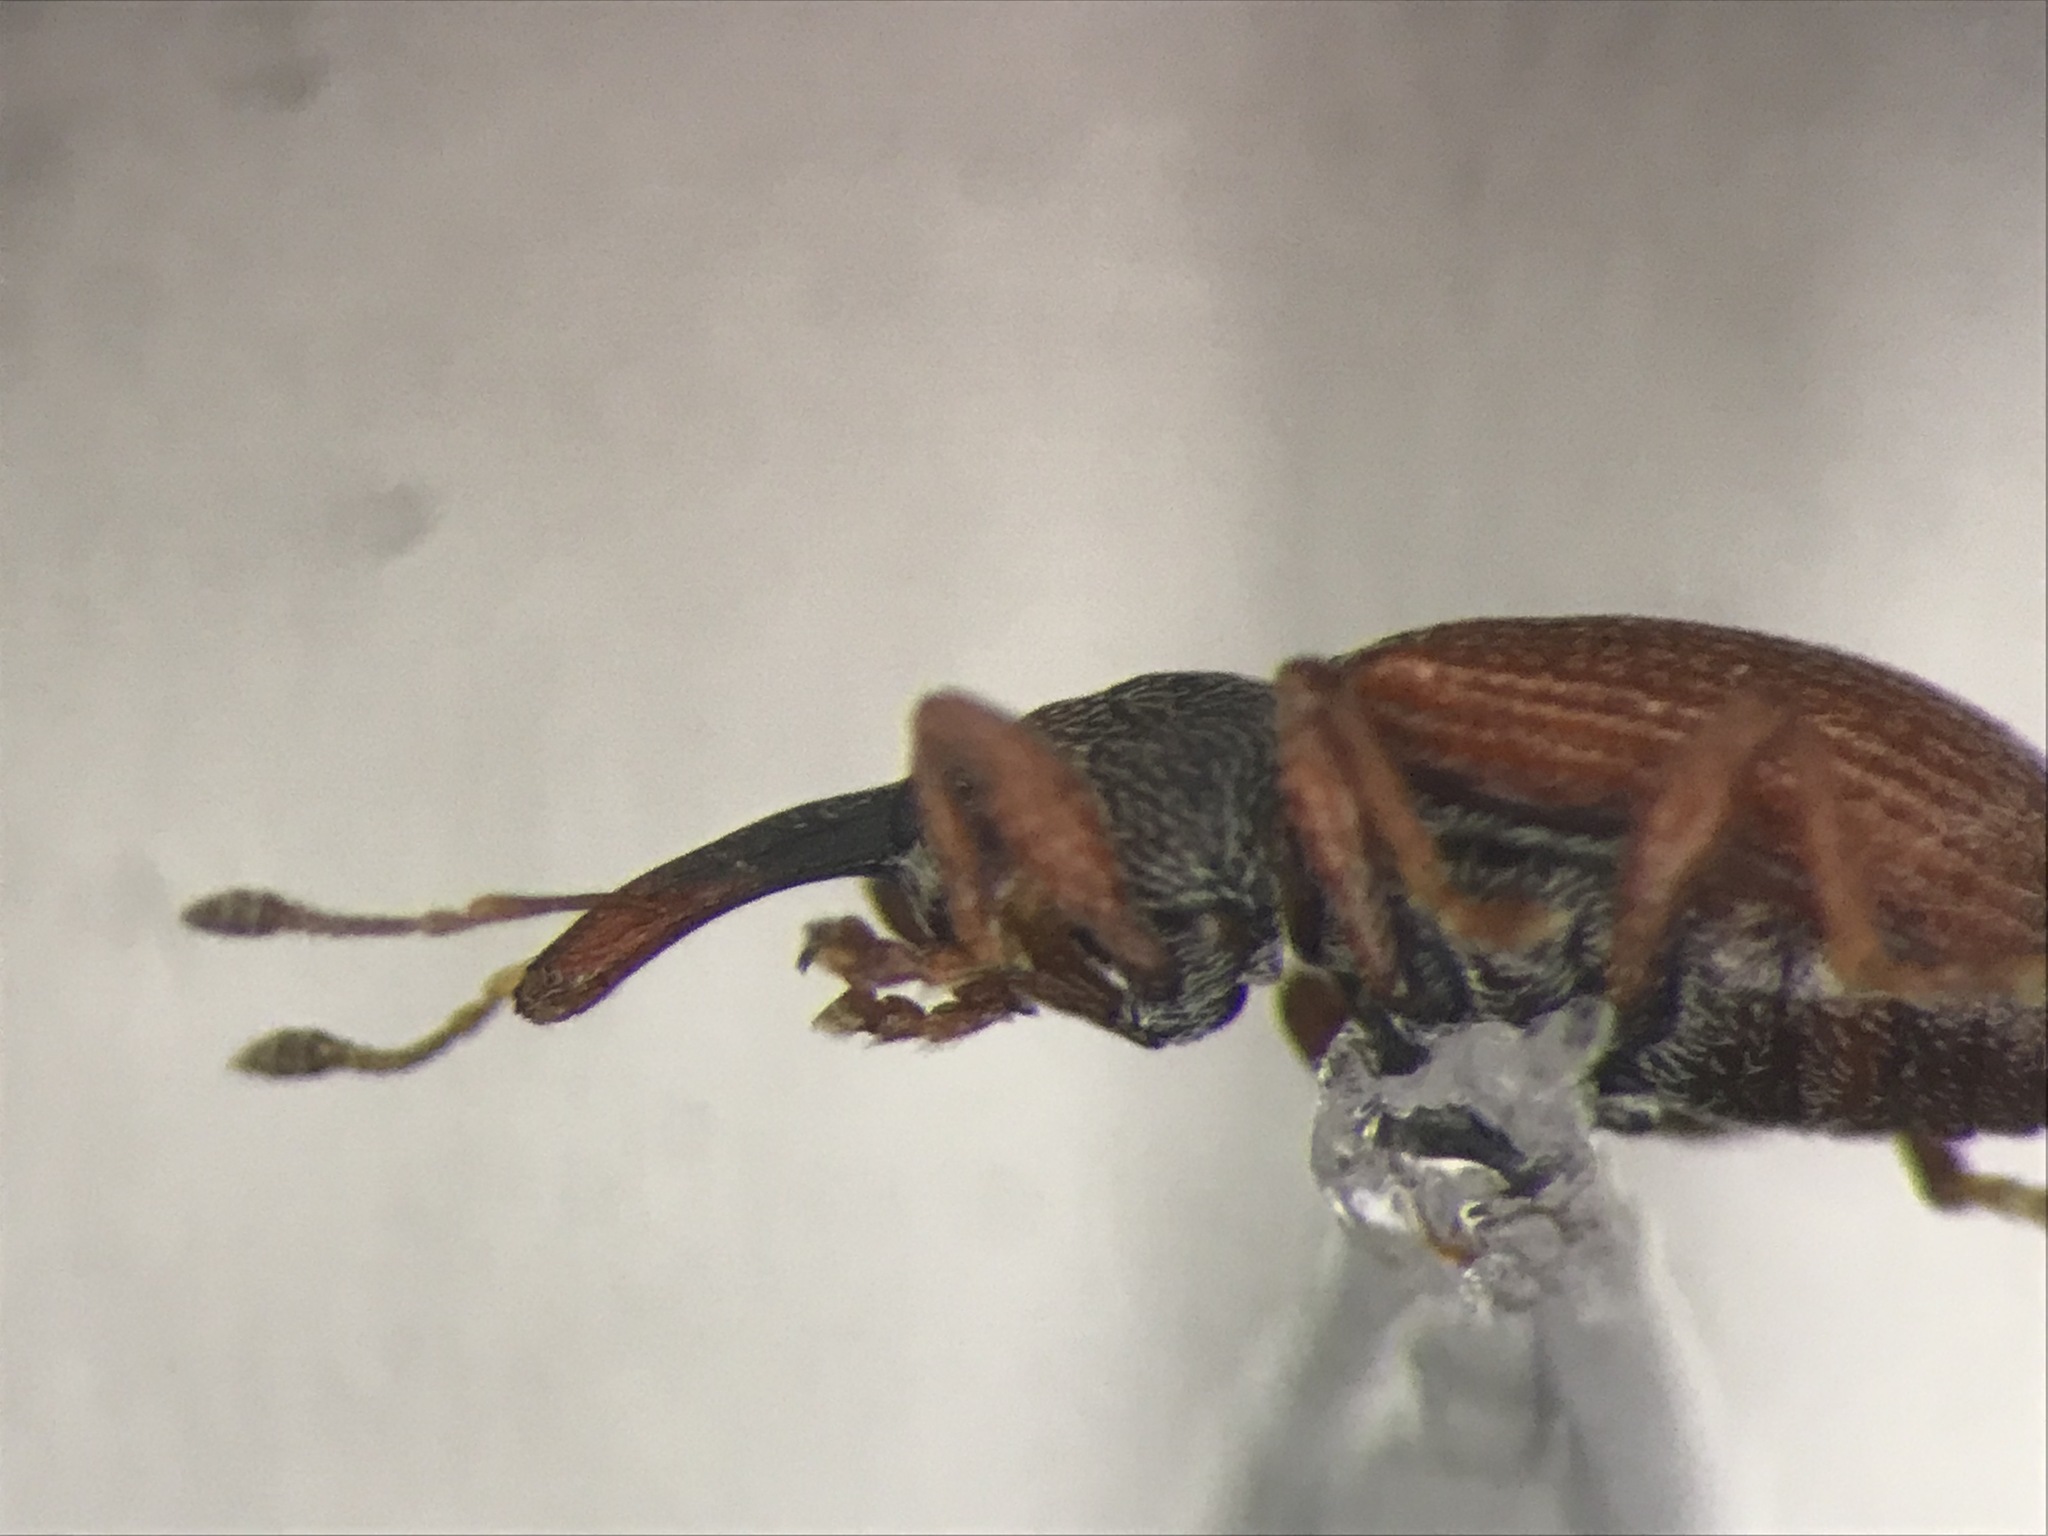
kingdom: Animalia
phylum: Arthropoda
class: Insecta
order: Coleoptera
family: Curculionidae
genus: Anthonomus
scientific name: Anthonomus haematopus
